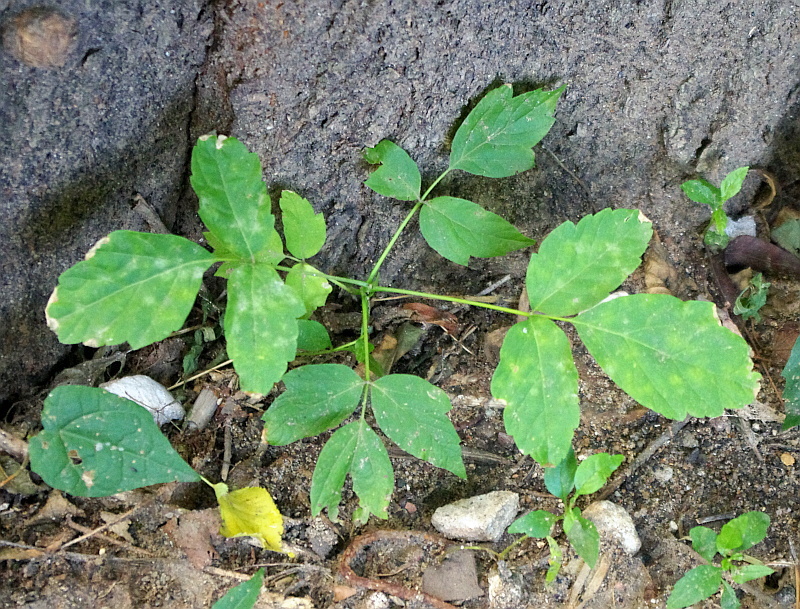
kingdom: Plantae
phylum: Tracheophyta
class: Magnoliopsida
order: Sapindales
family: Sapindaceae
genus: Acer
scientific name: Acer negundo
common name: Ashleaf maple
